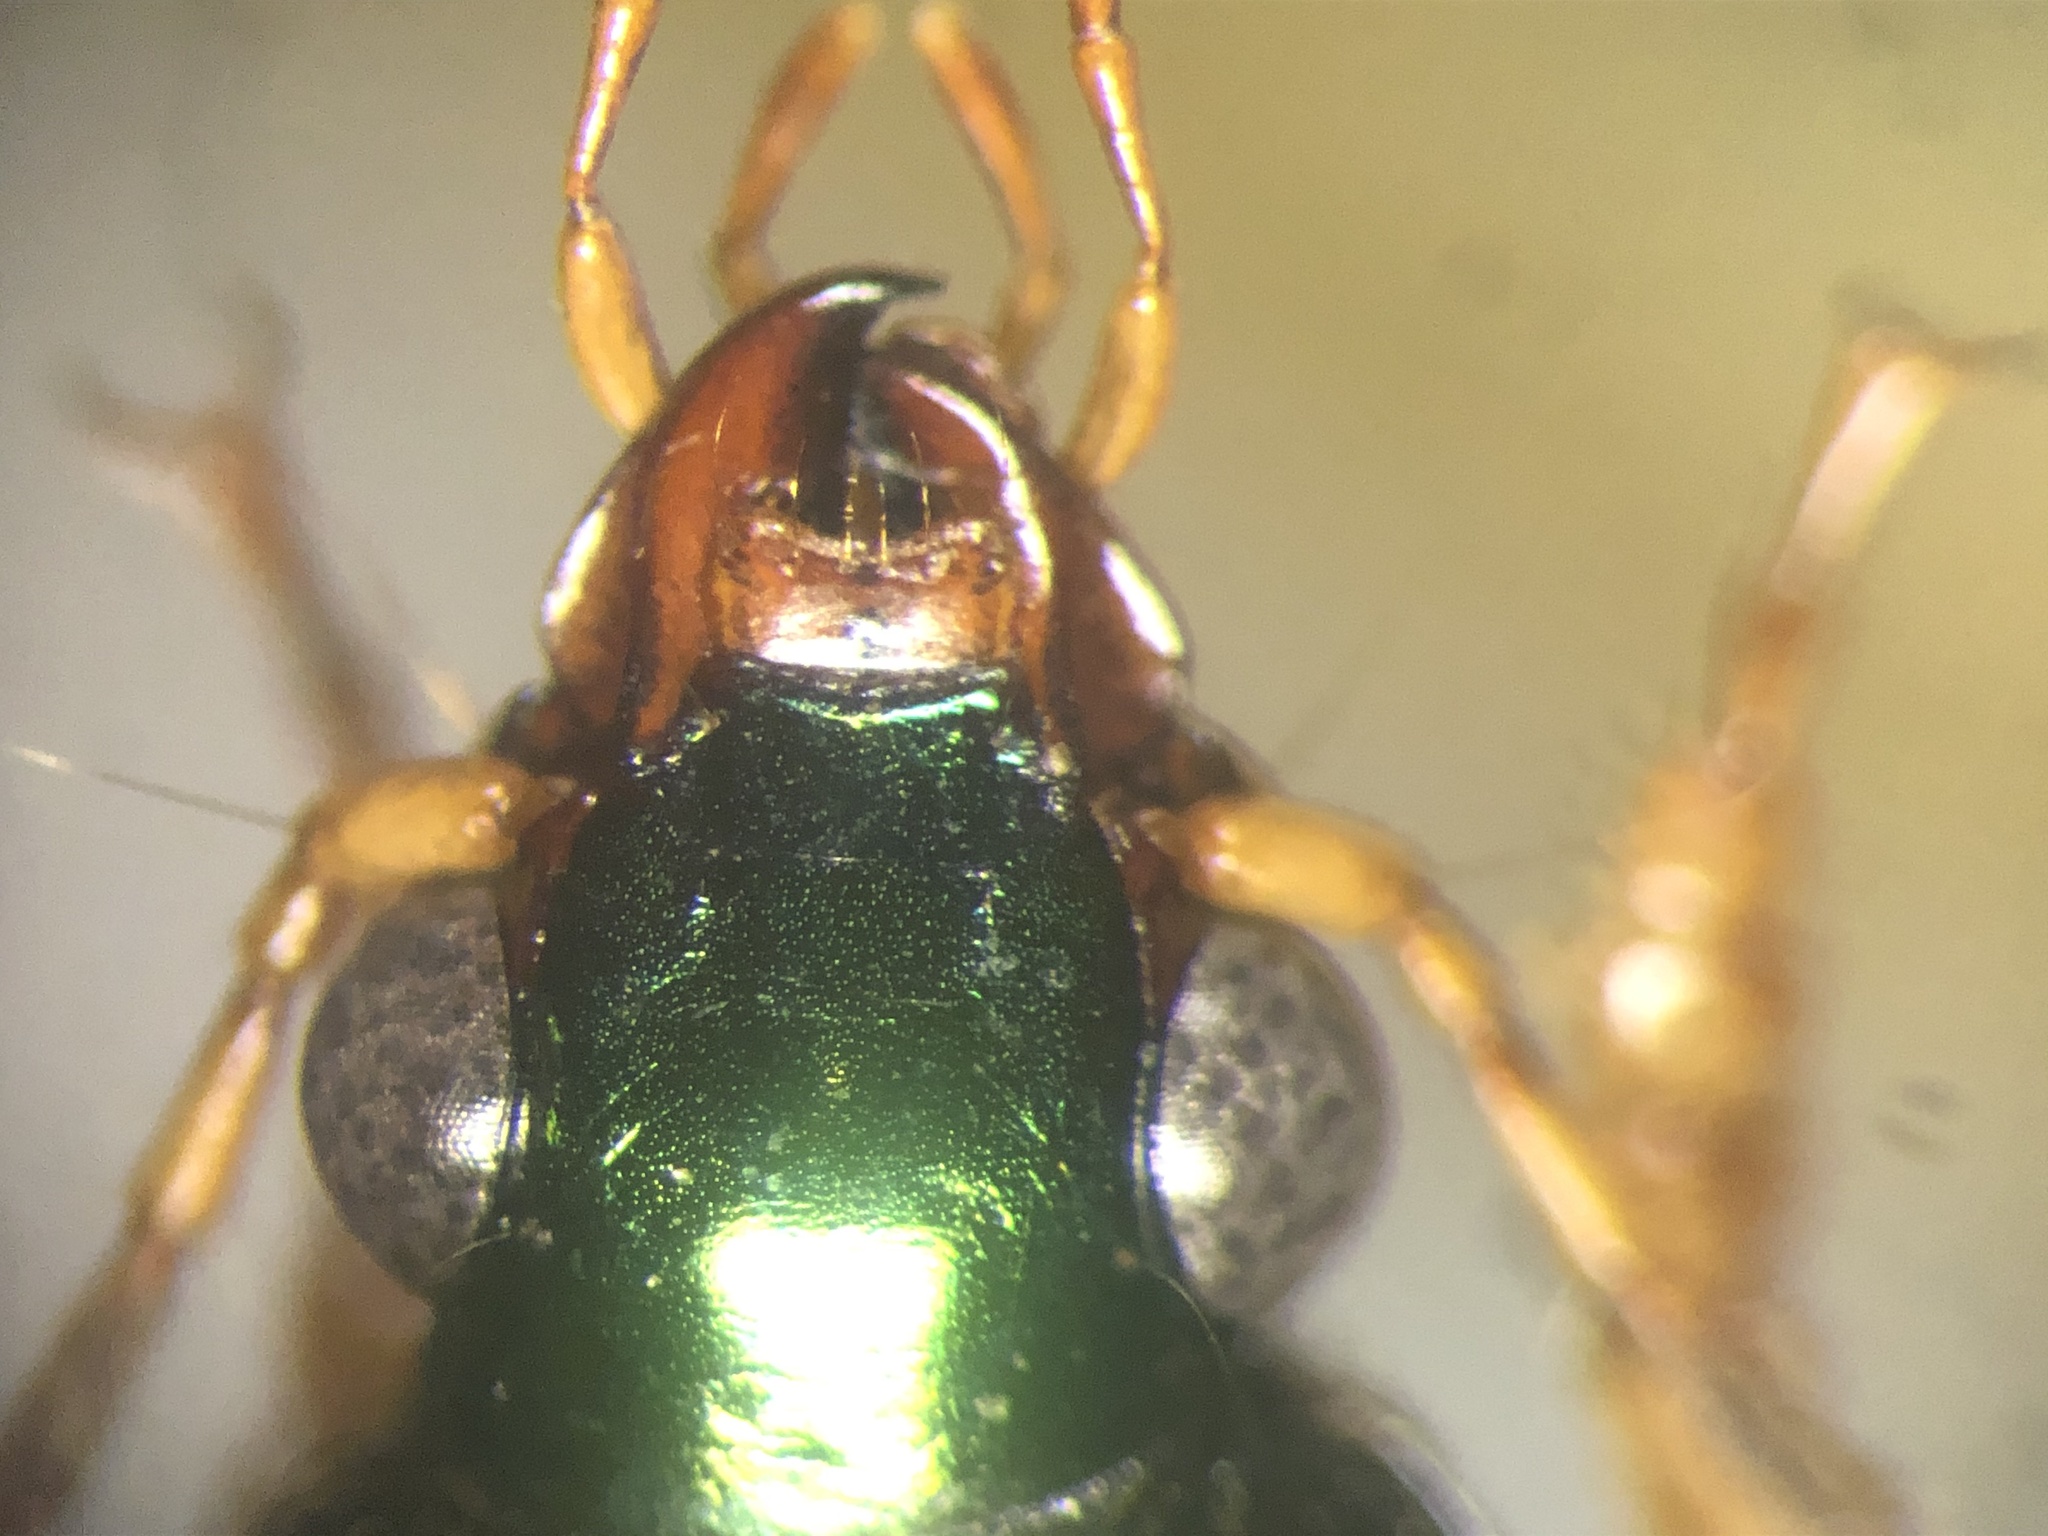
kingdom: Animalia
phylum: Arthropoda
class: Insecta
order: Coleoptera
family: Carabidae
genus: Chlaenius
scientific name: Chlaenius pennsylvanicus
